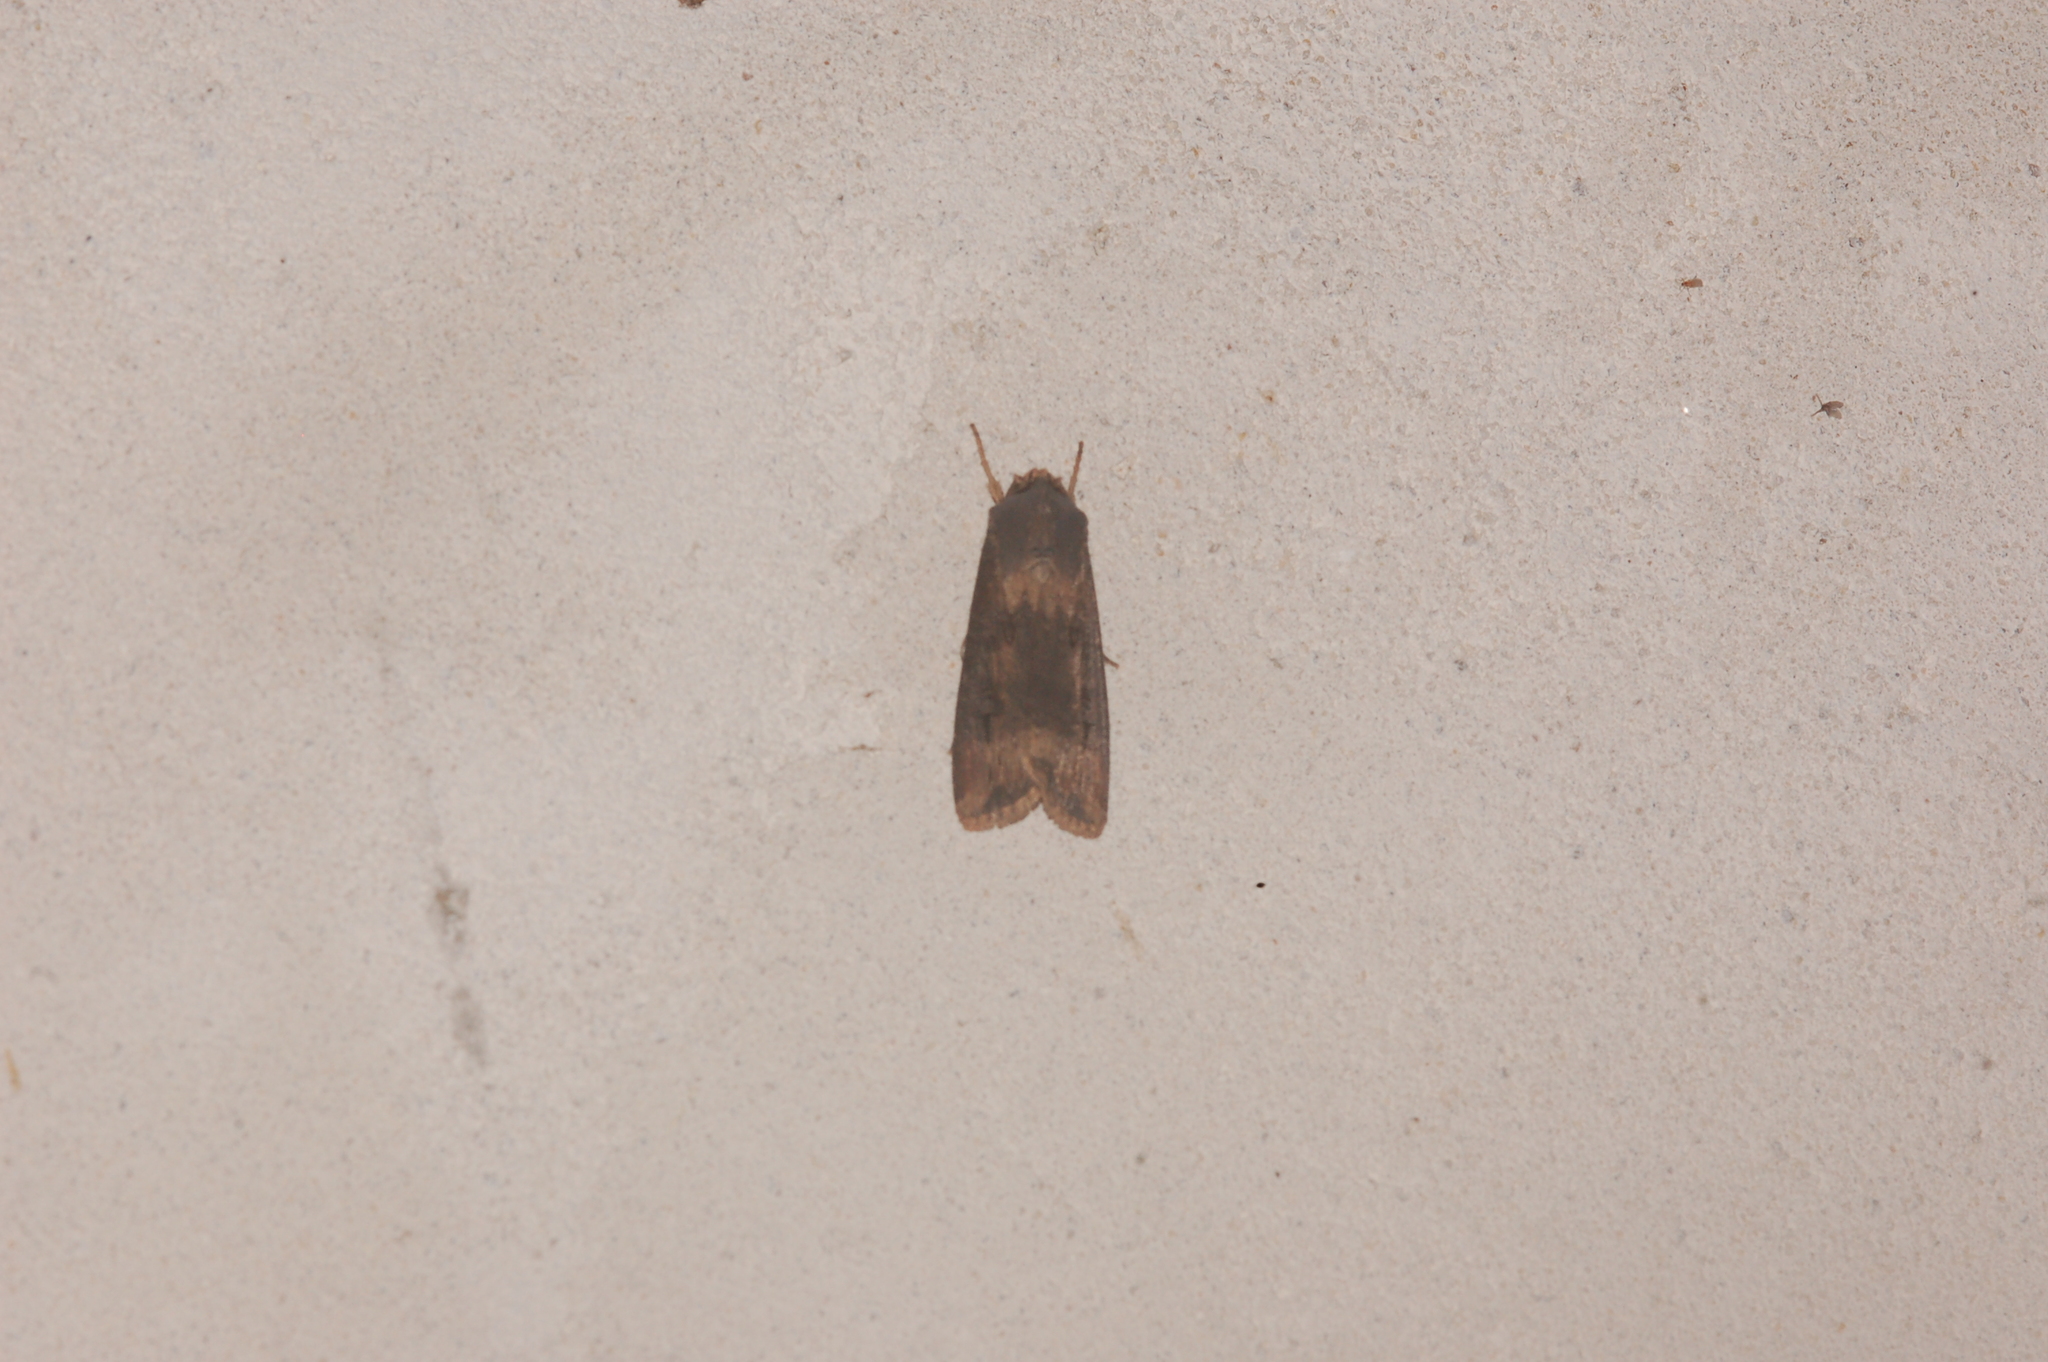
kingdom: Animalia
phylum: Arthropoda
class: Insecta
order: Lepidoptera
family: Noctuidae
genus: Agrotis
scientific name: Agrotis ipsilon
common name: Dark sword-grass
